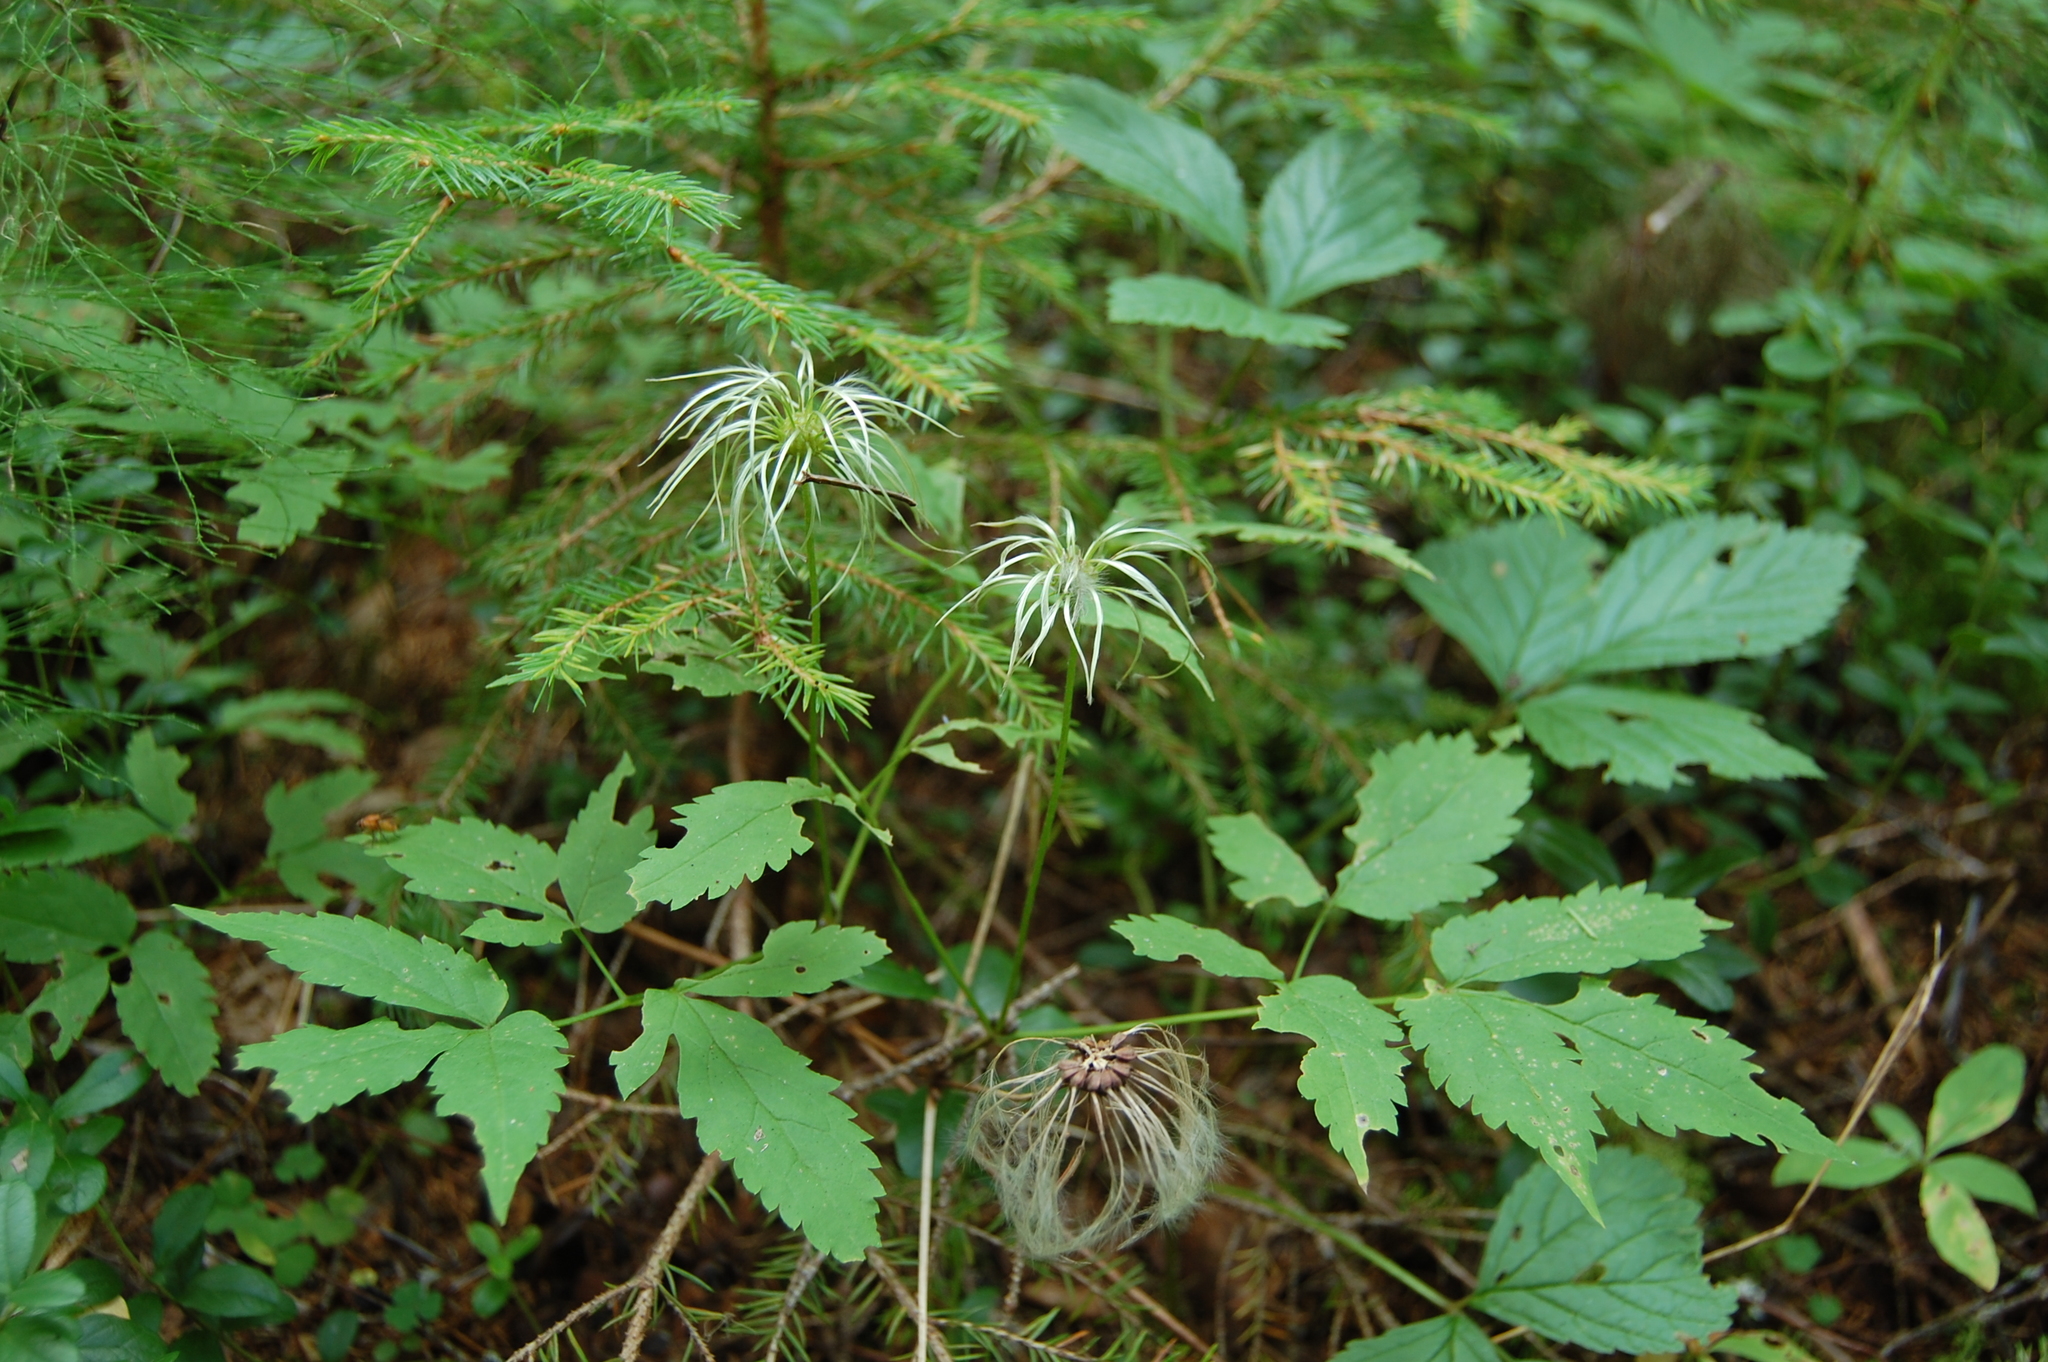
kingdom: Plantae
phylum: Tracheophyta
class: Magnoliopsida
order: Ranunculales
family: Ranunculaceae
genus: Clematis
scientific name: Clematis sibirica
